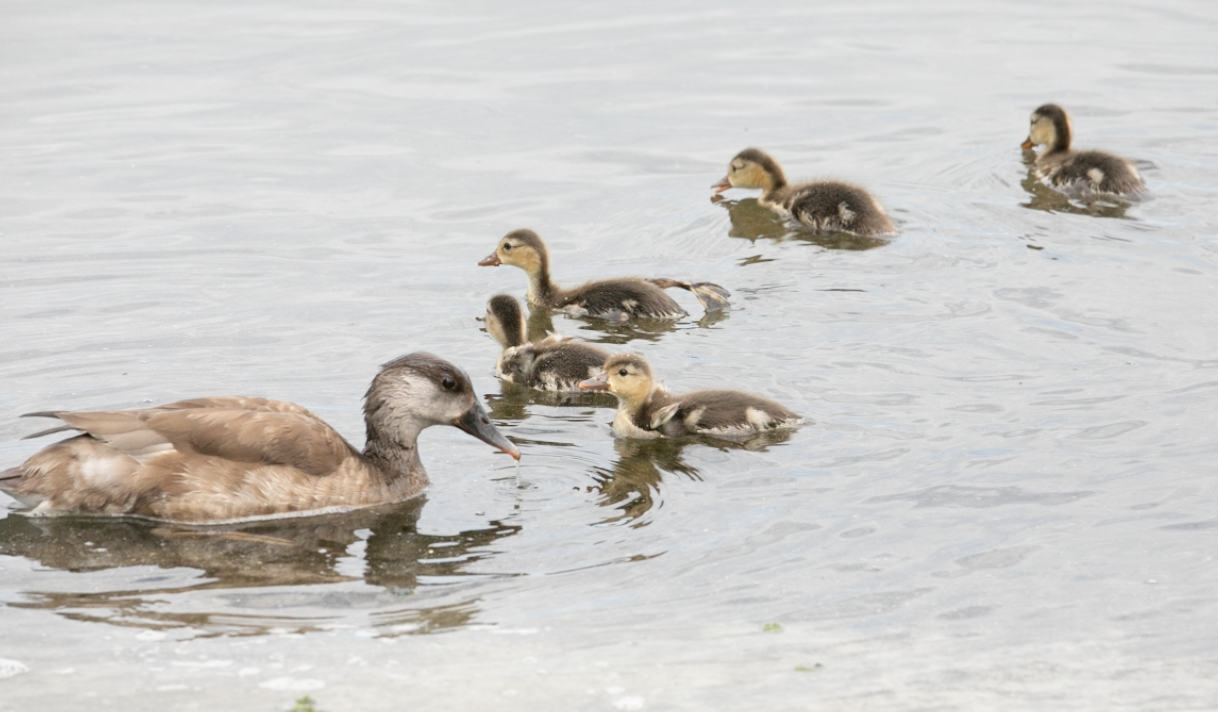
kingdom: Animalia
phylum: Chordata
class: Aves
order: Anseriformes
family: Anatidae
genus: Netta
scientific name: Netta rufina
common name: Red-crested pochard
